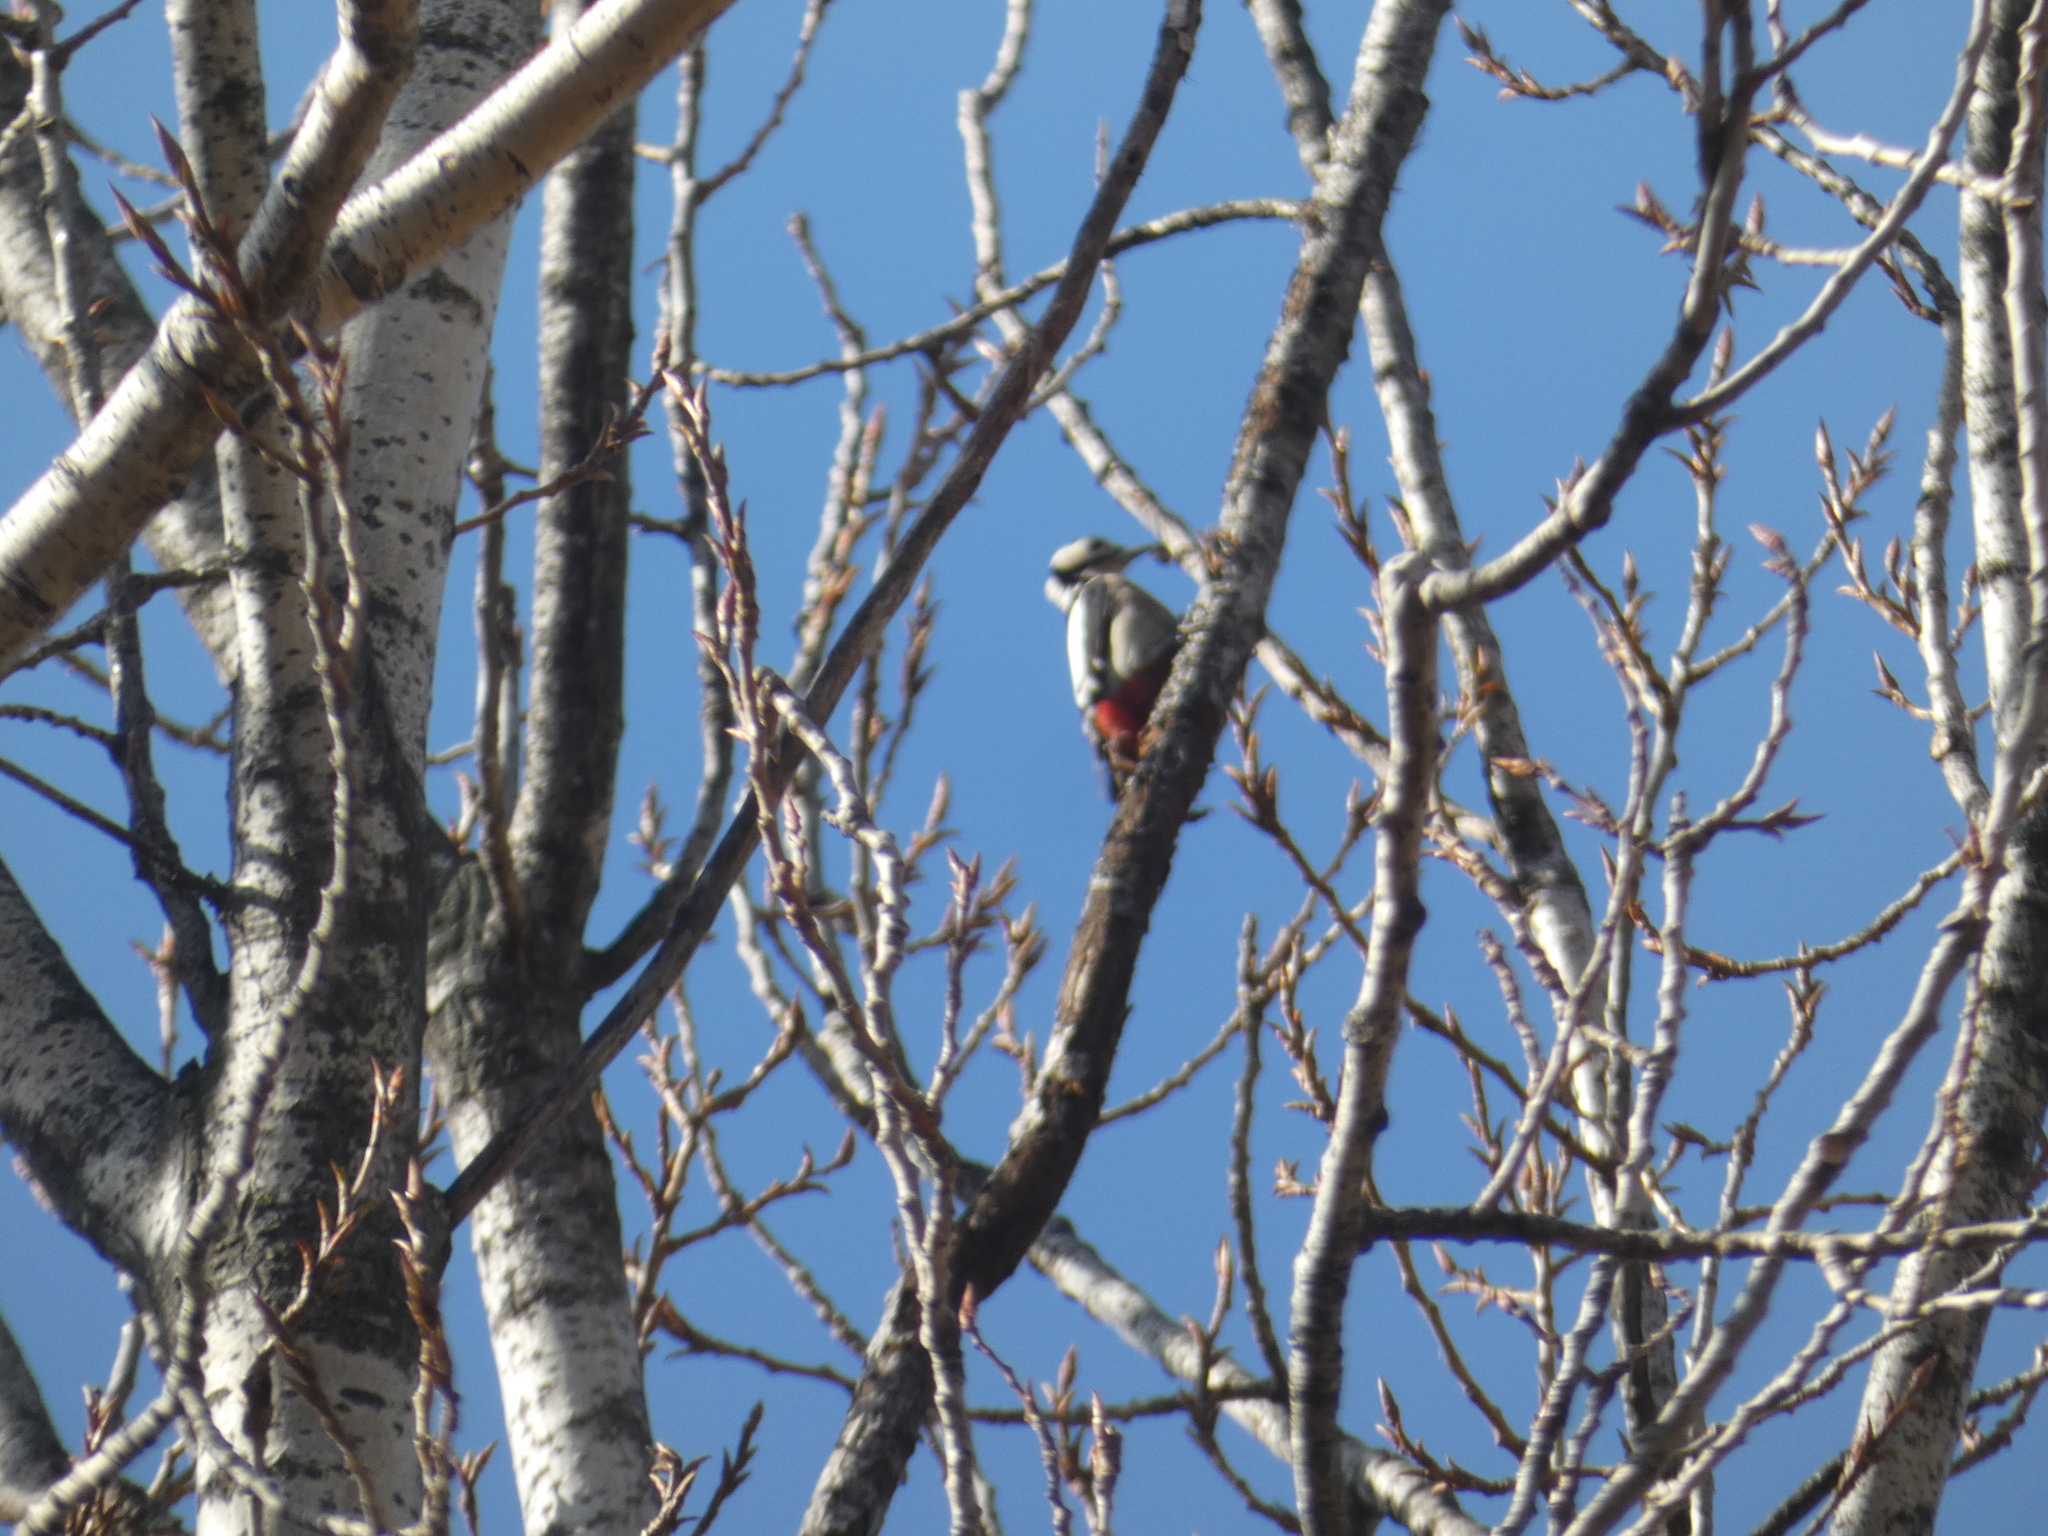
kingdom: Animalia
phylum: Chordata
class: Aves
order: Piciformes
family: Picidae
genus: Dendrocopos
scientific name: Dendrocopos major
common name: Great spotted woodpecker
